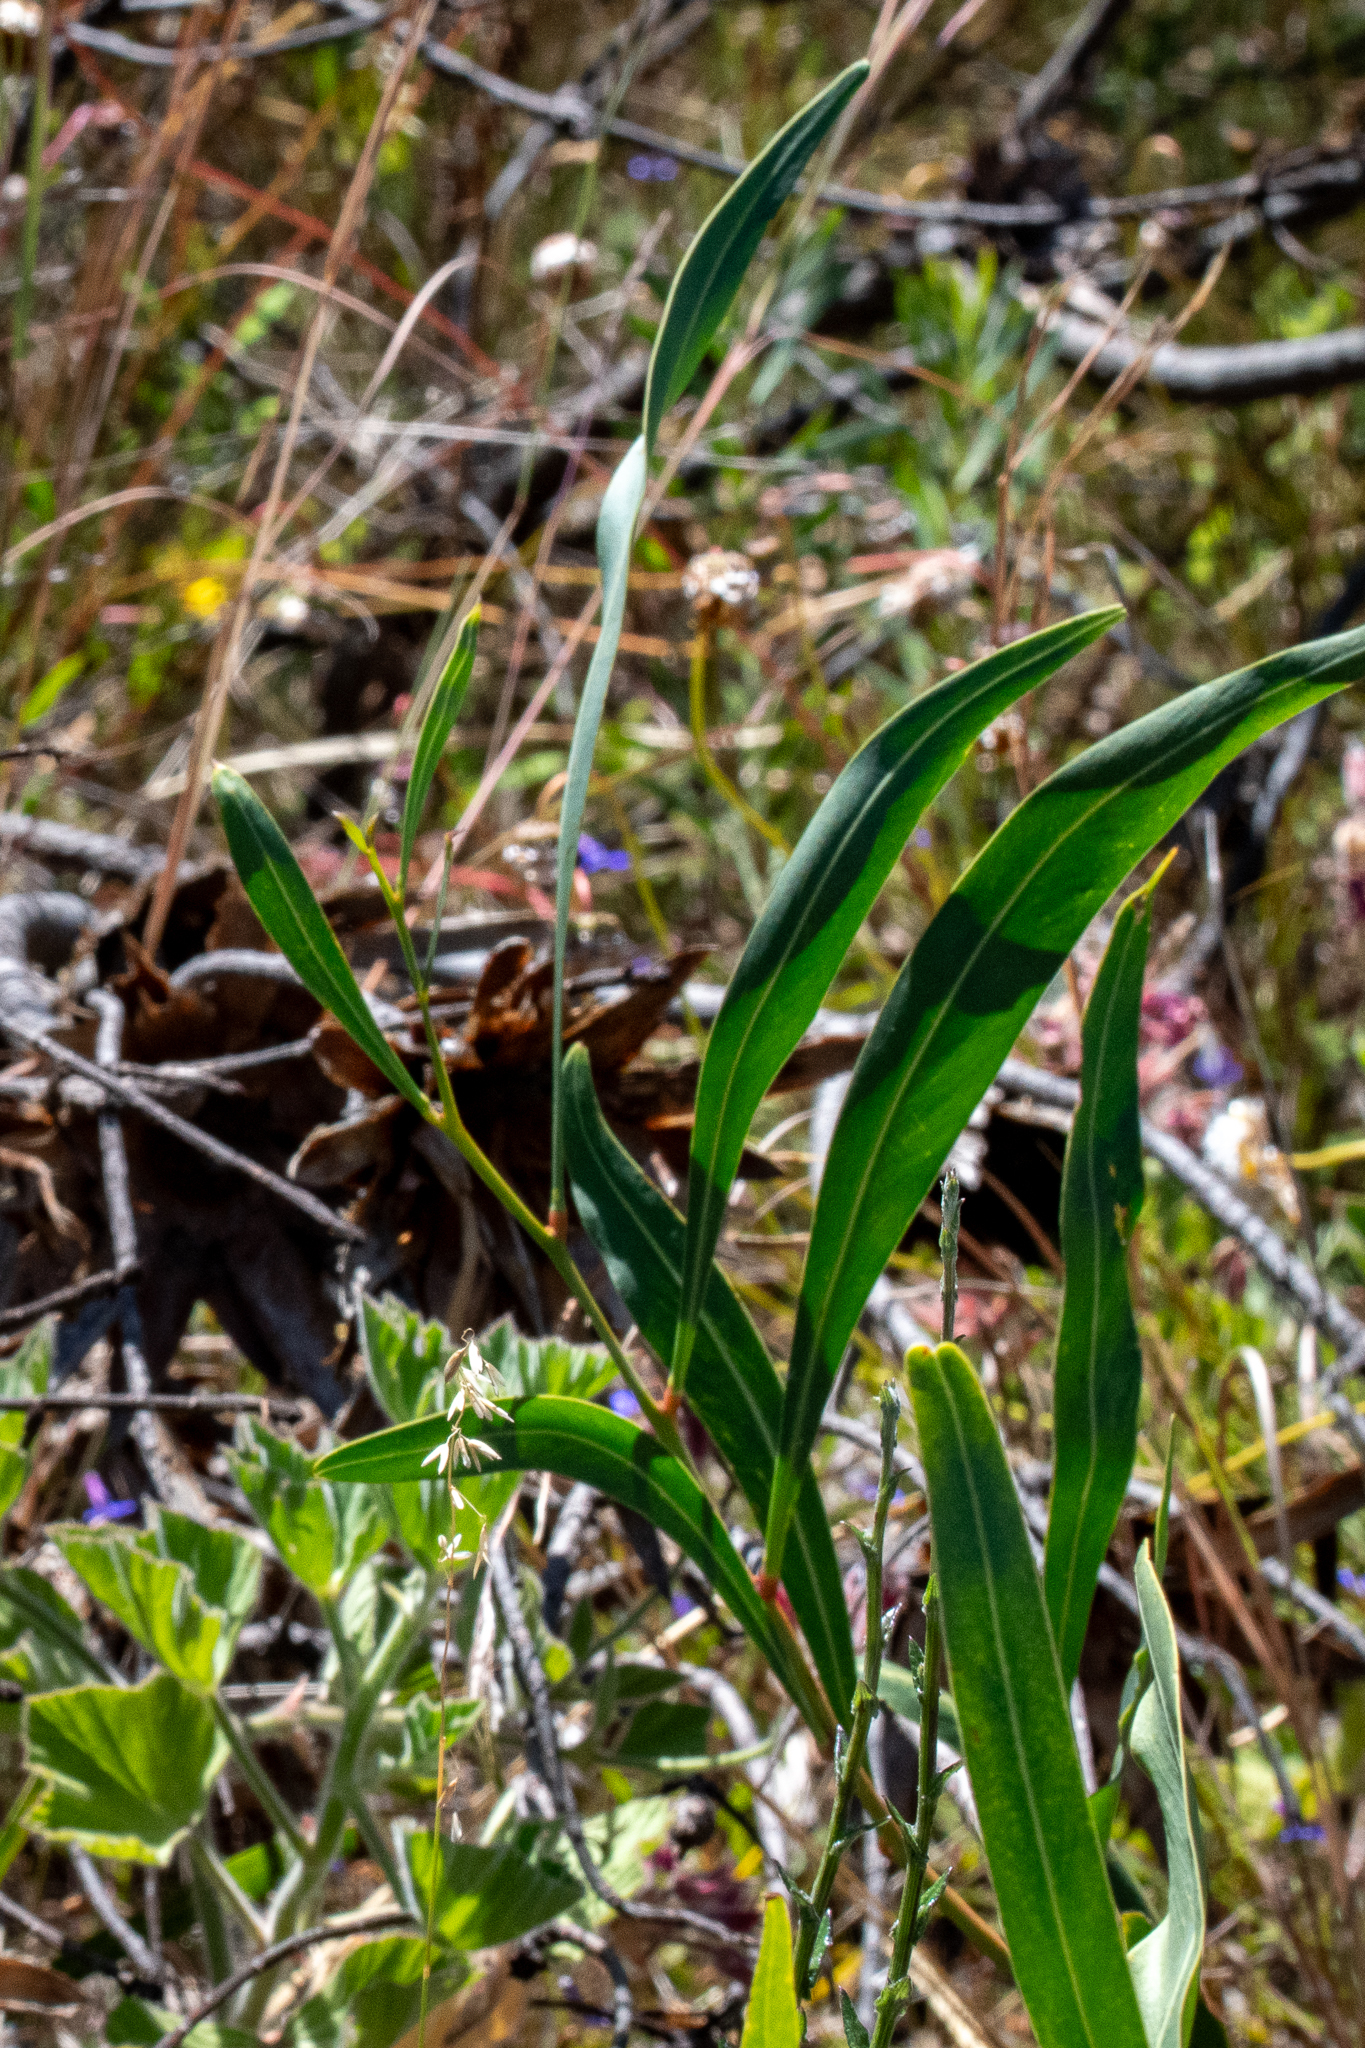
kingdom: Plantae
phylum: Tracheophyta
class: Magnoliopsida
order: Fabales
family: Fabaceae
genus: Acacia
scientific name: Acacia saligna
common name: Orange wattle
